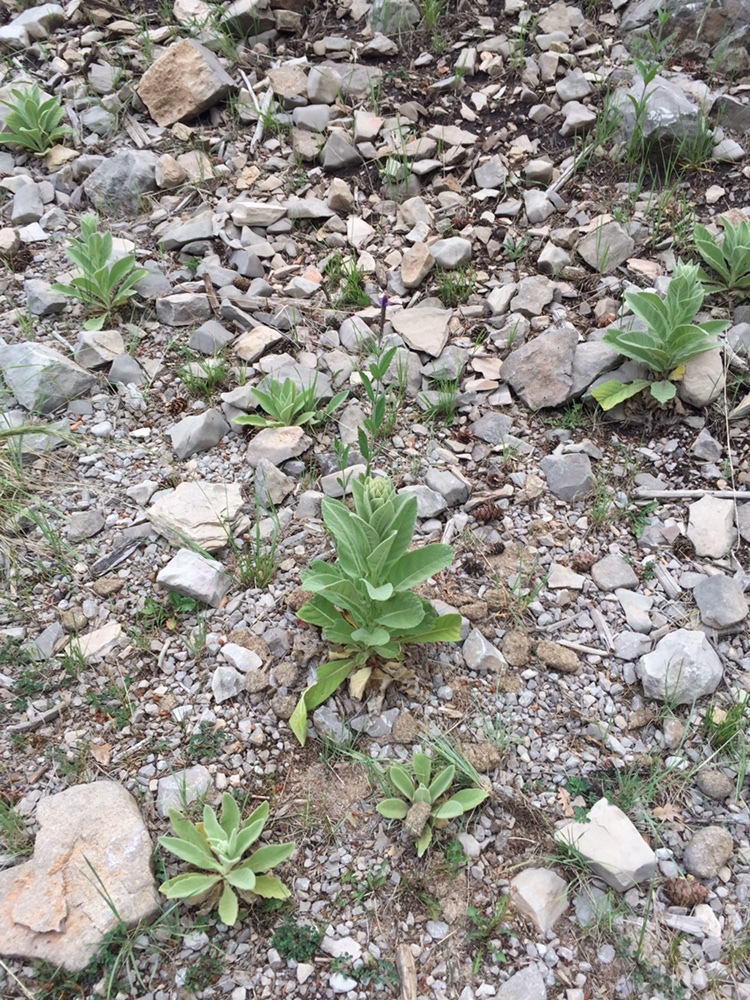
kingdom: Plantae
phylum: Tracheophyta
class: Magnoliopsida
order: Lamiales
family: Scrophulariaceae
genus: Verbascum
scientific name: Verbascum thapsus
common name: Common mullein
